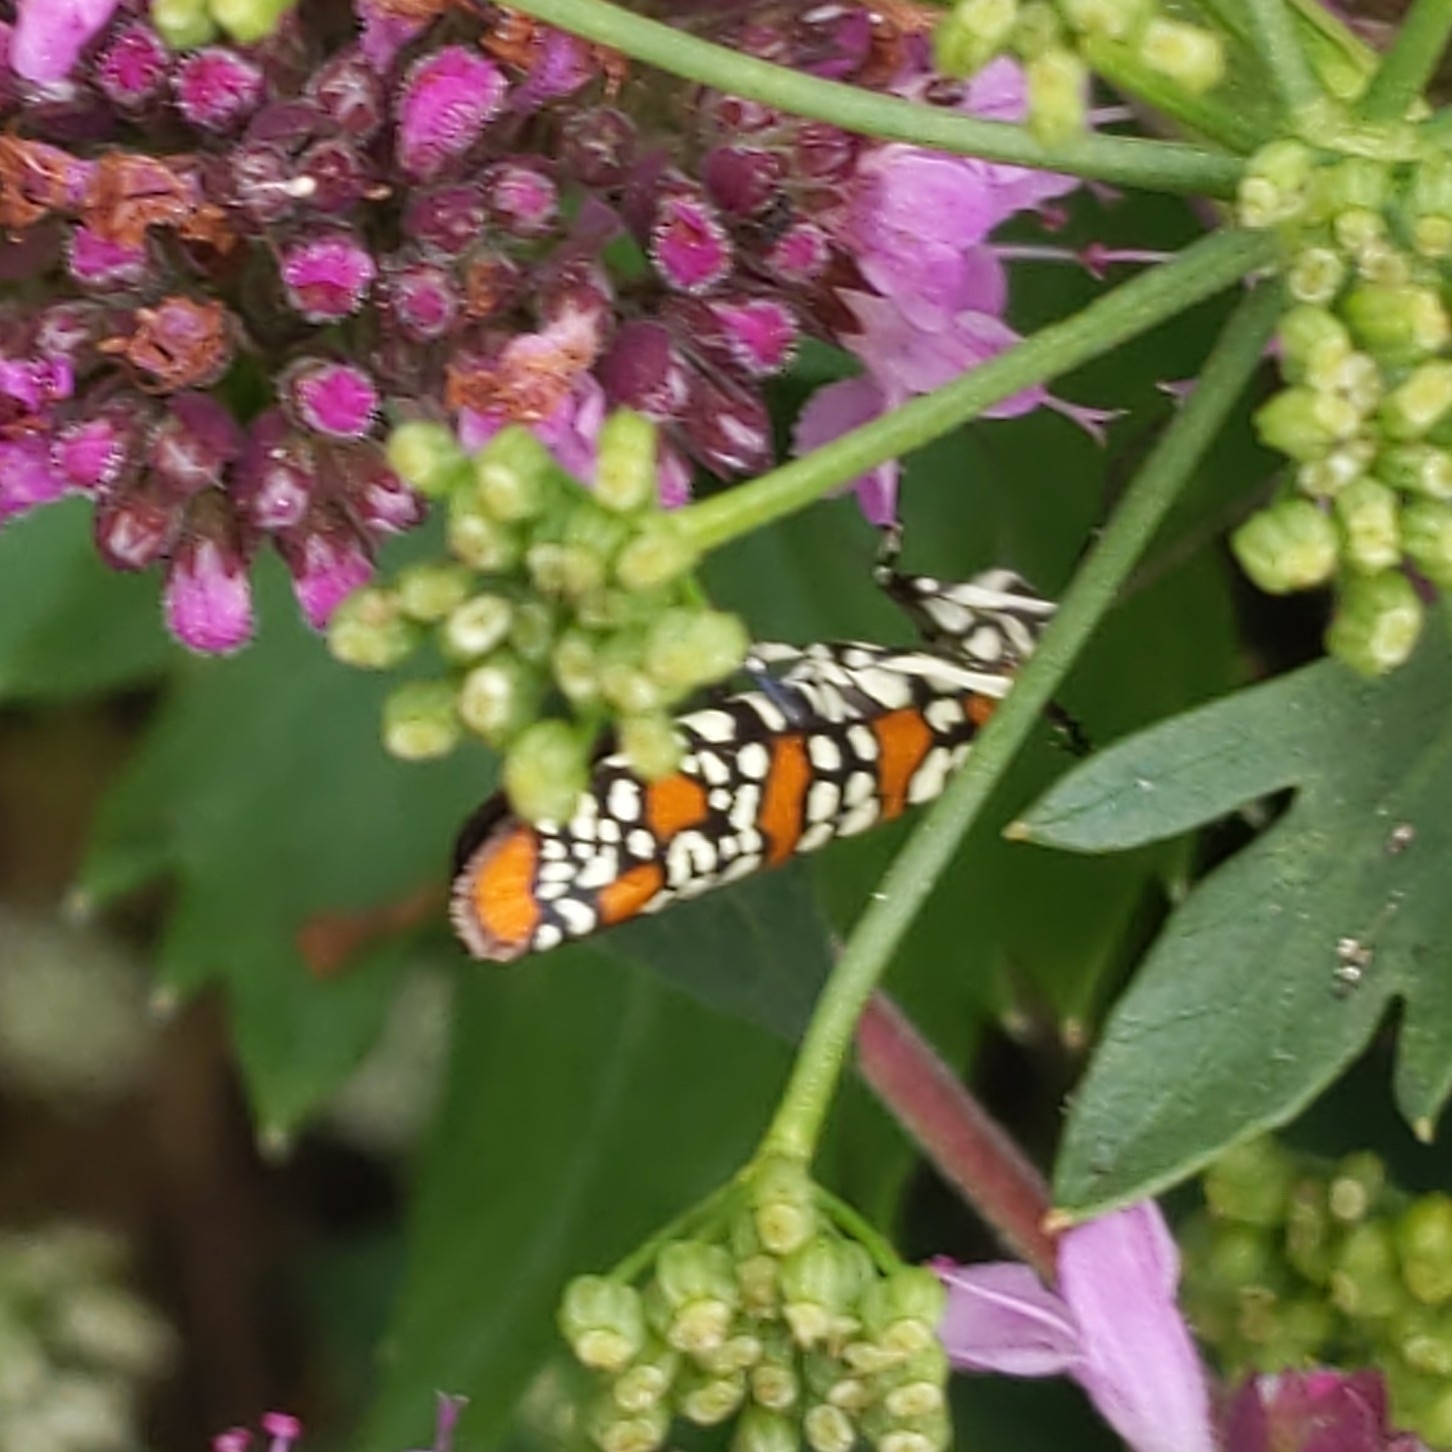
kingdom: Animalia
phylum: Arthropoda
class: Insecta
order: Lepidoptera
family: Attevidae
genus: Atteva
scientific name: Atteva punctella
